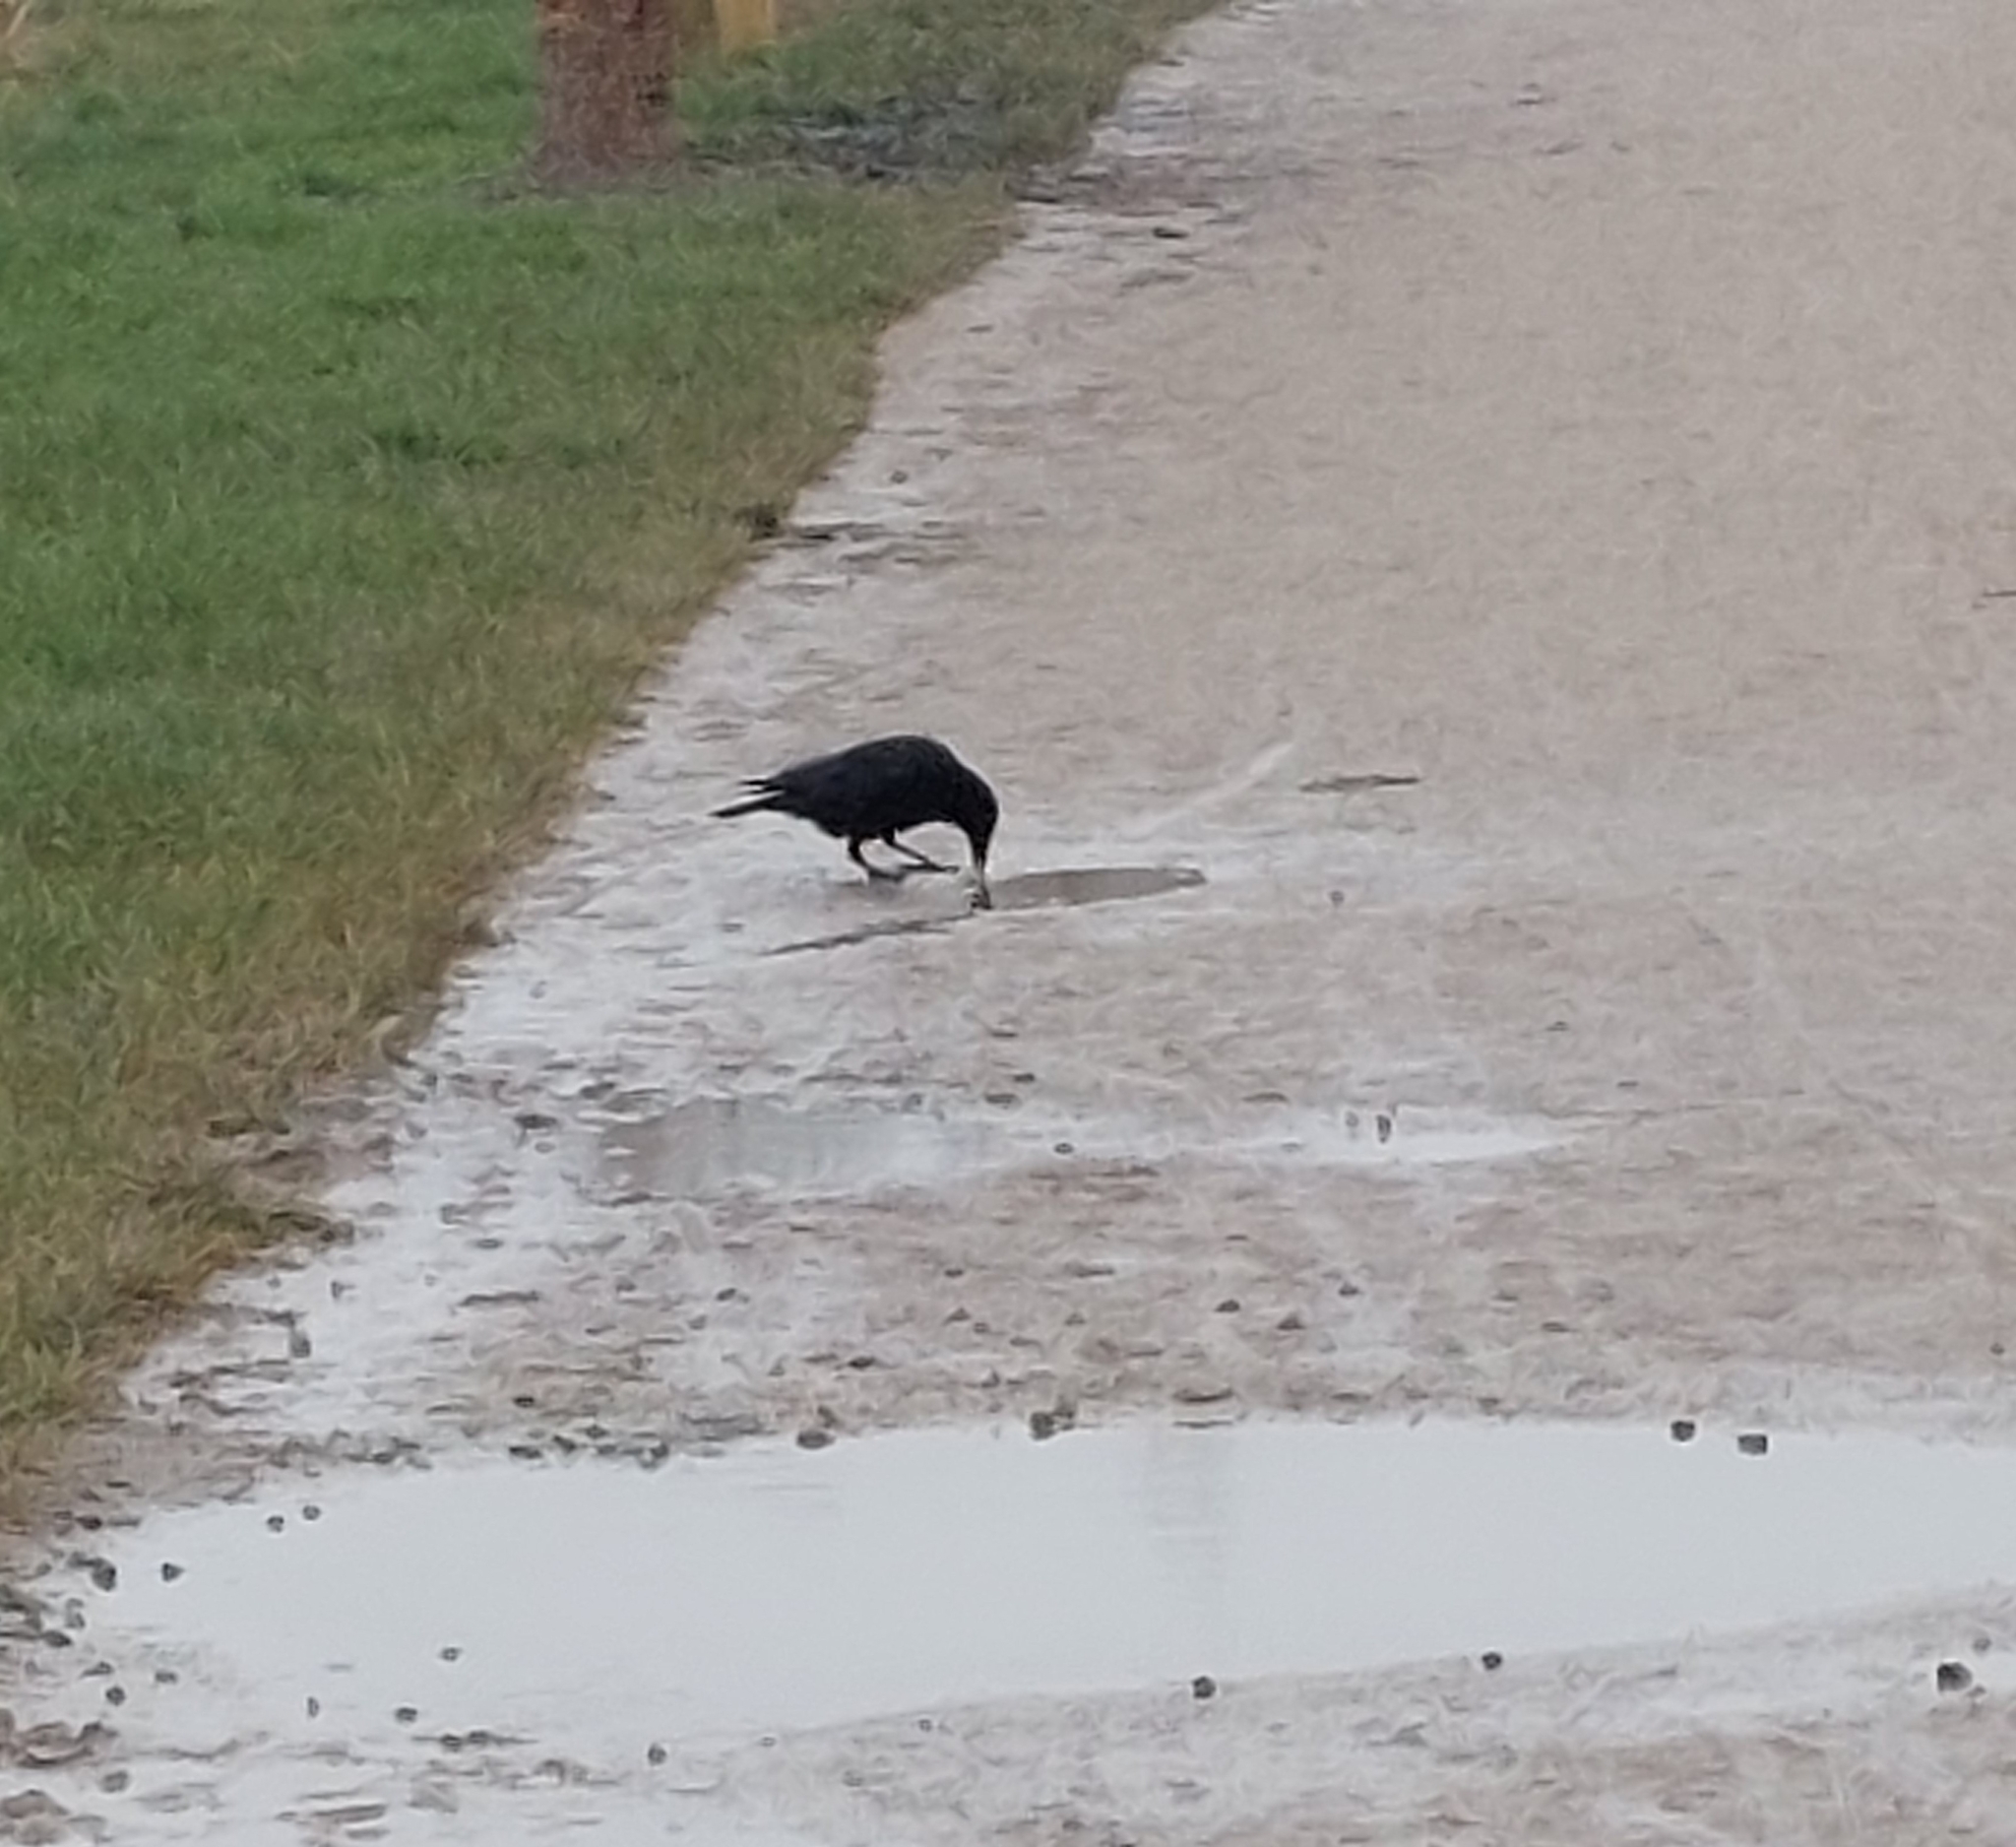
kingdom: Animalia
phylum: Chordata
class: Aves
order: Passeriformes
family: Corvidae
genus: Corvus
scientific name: Corvus corone
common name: Carrion crow
